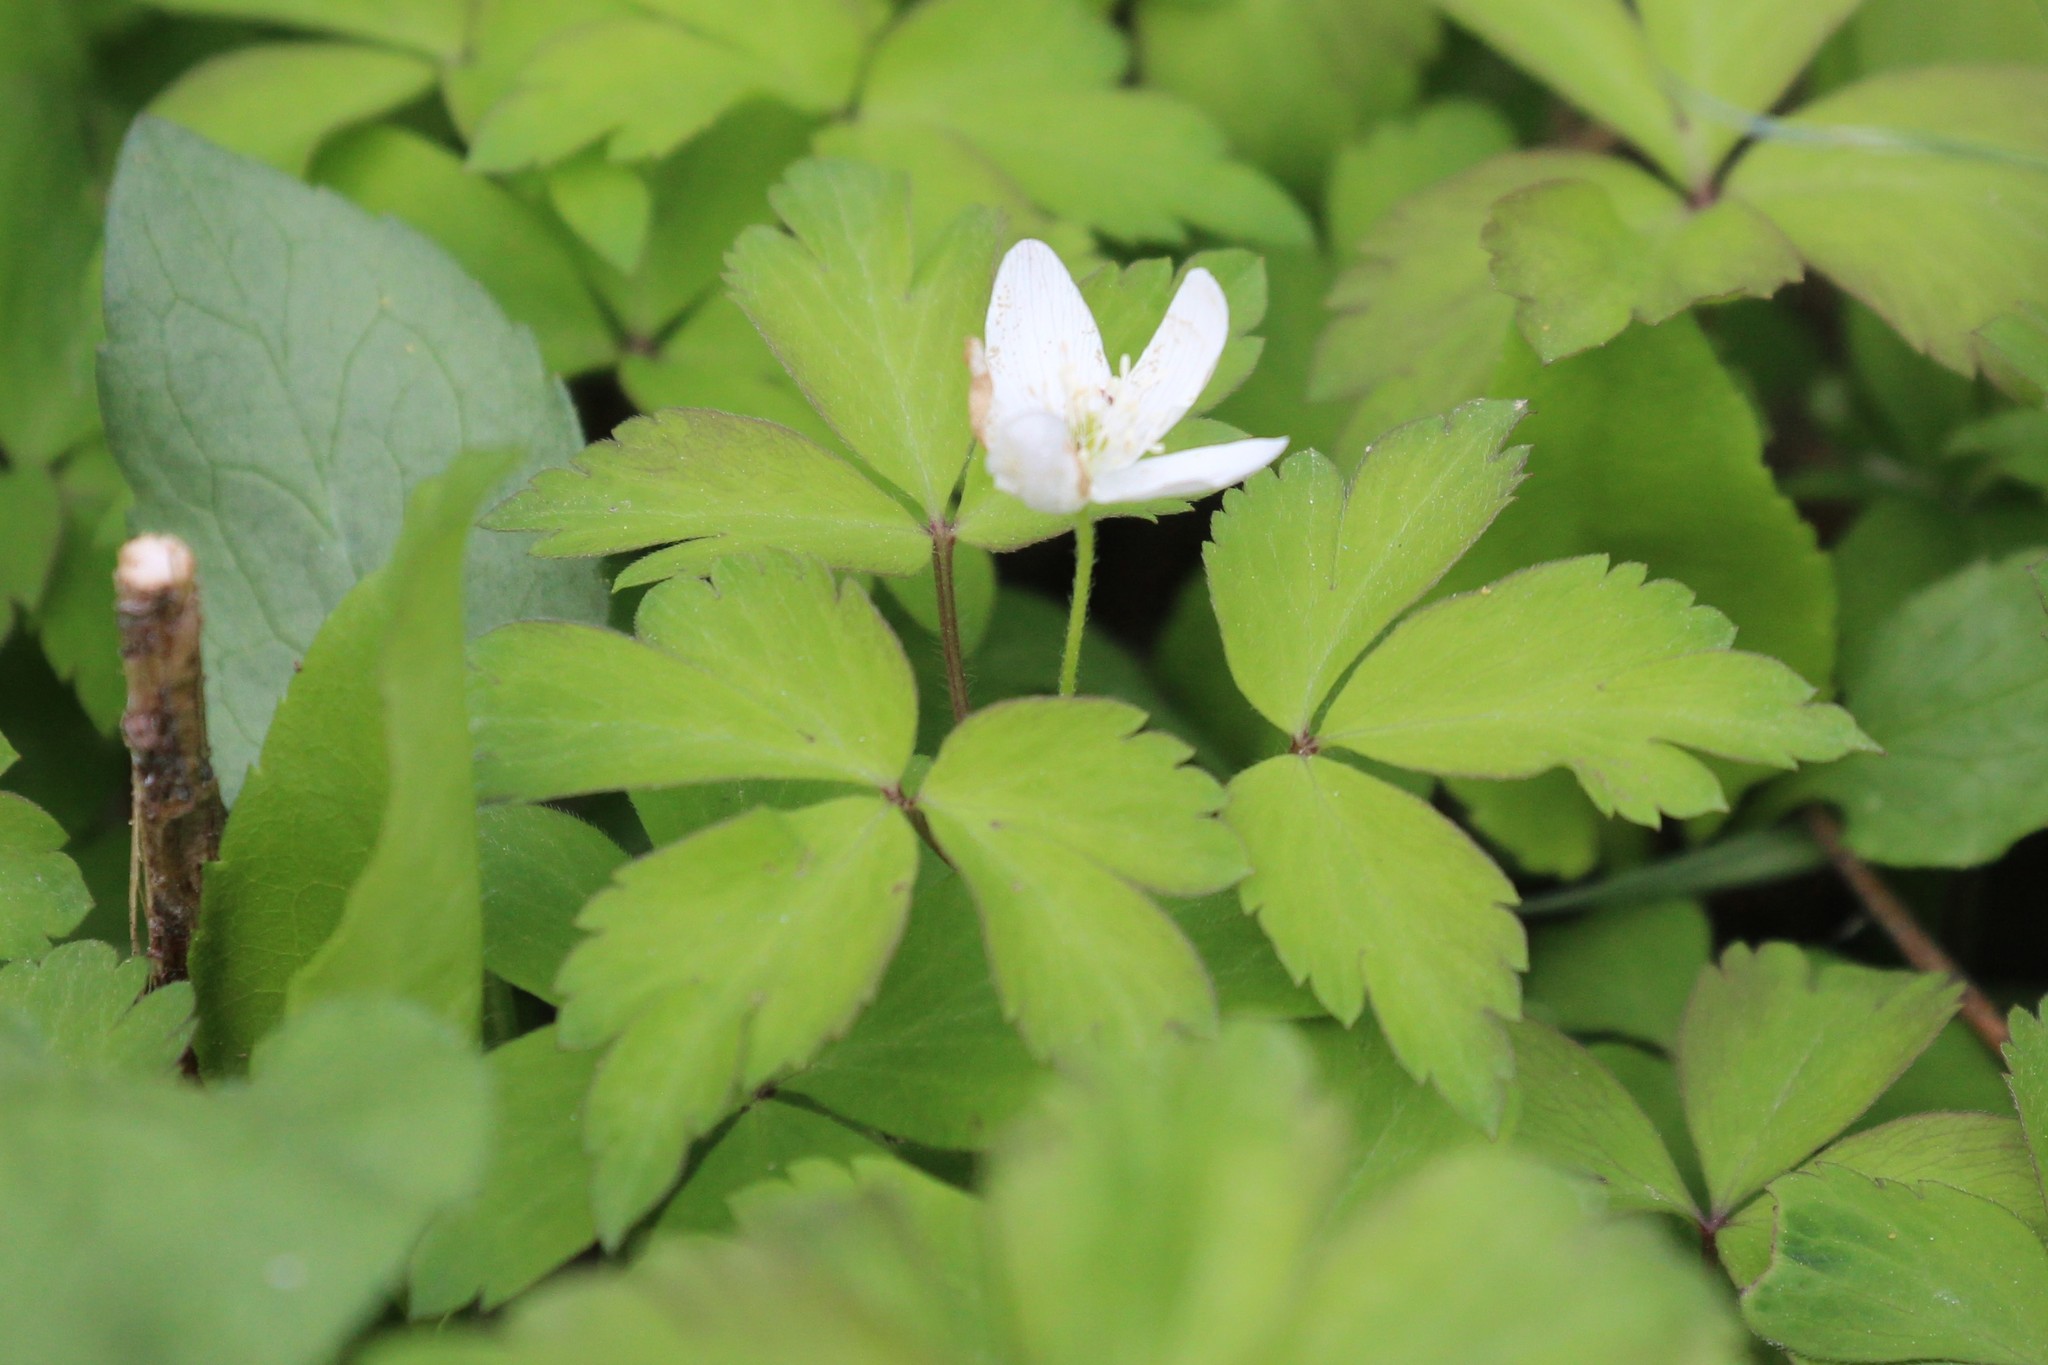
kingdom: Plantae
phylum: Tracheophyta
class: Magnoliopsida
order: Ranunculales
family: Ranunculaceae
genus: Anemone
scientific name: Anemone quinquefolia
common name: Wood anemone
